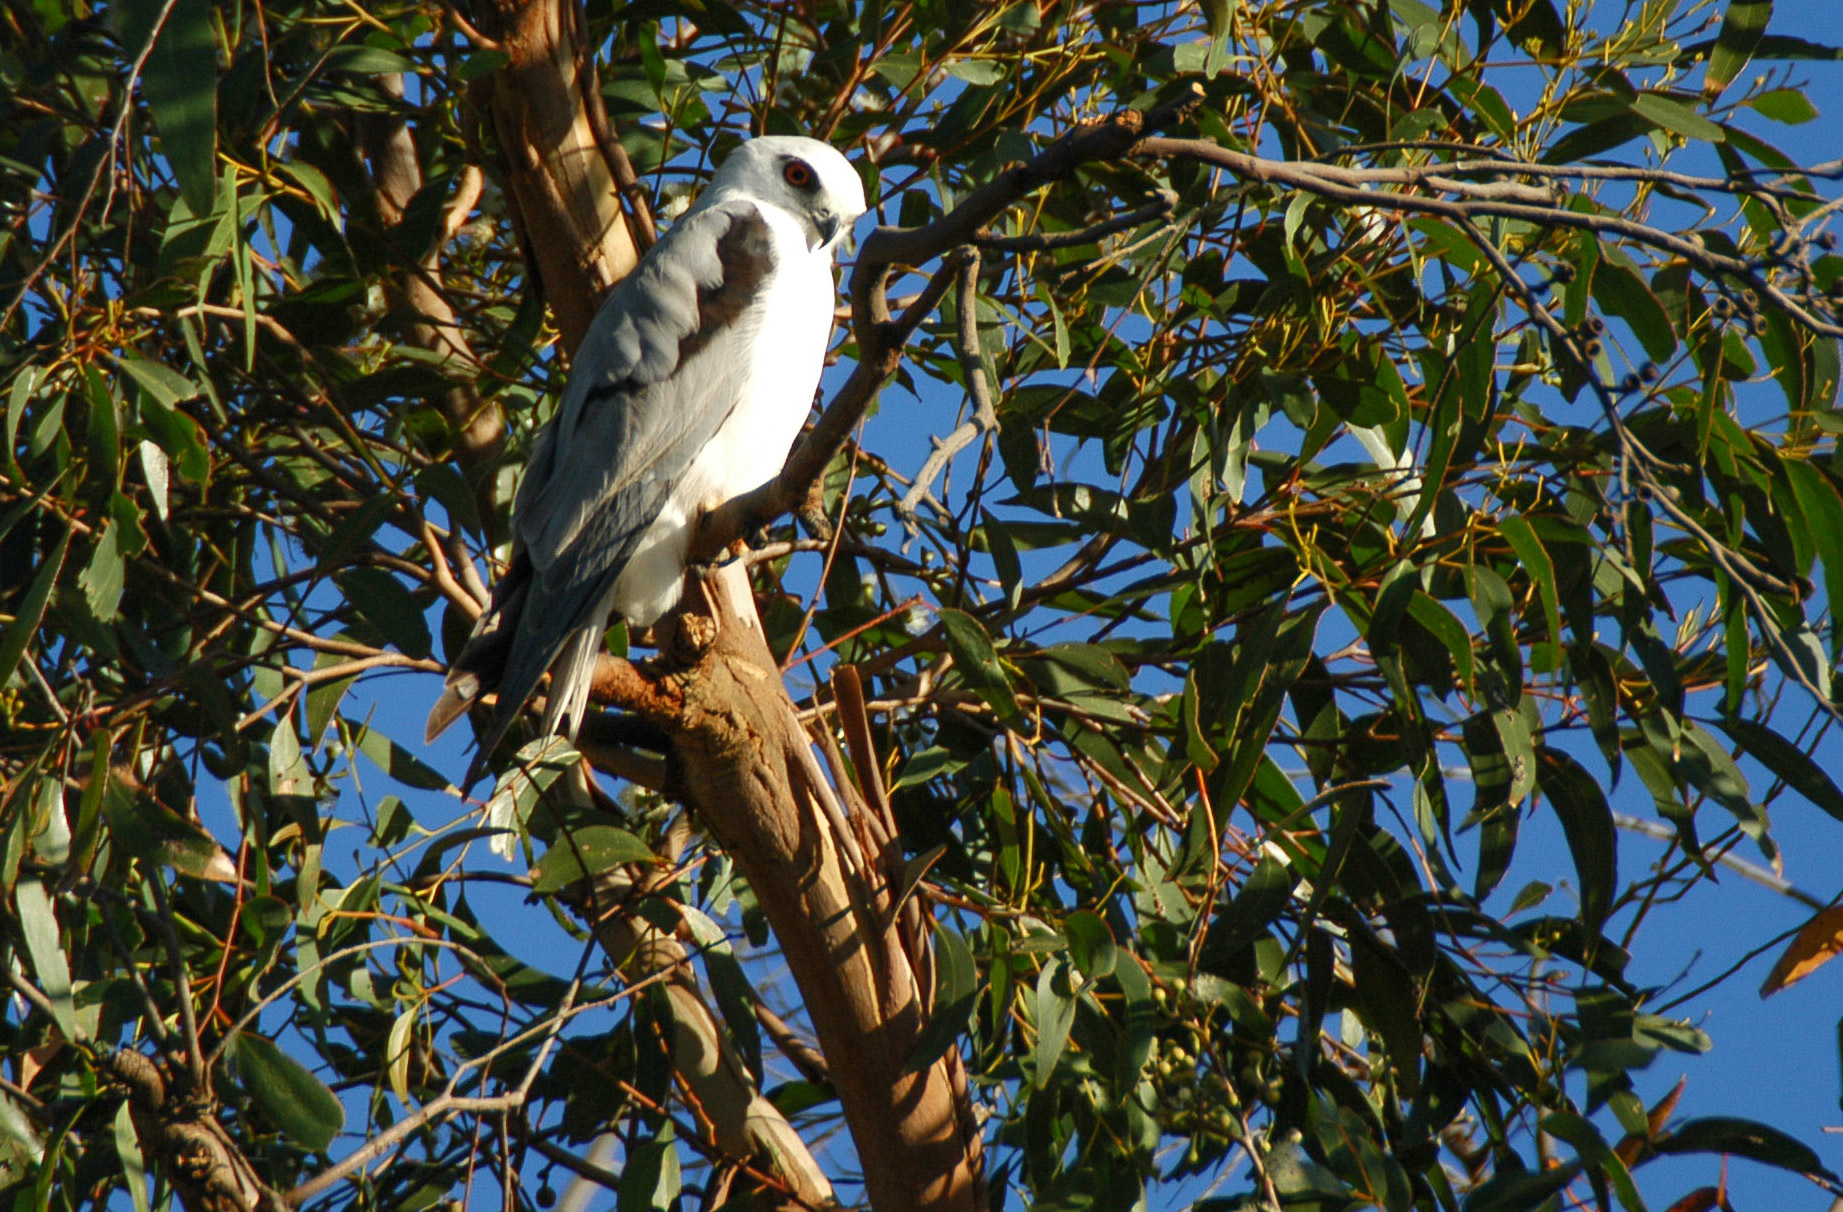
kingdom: Animalia
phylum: Chordata
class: Aves
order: Accipitriformes
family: Accipitridae
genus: Elanus
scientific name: Elanus axillaris
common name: Black-shouldered kite
